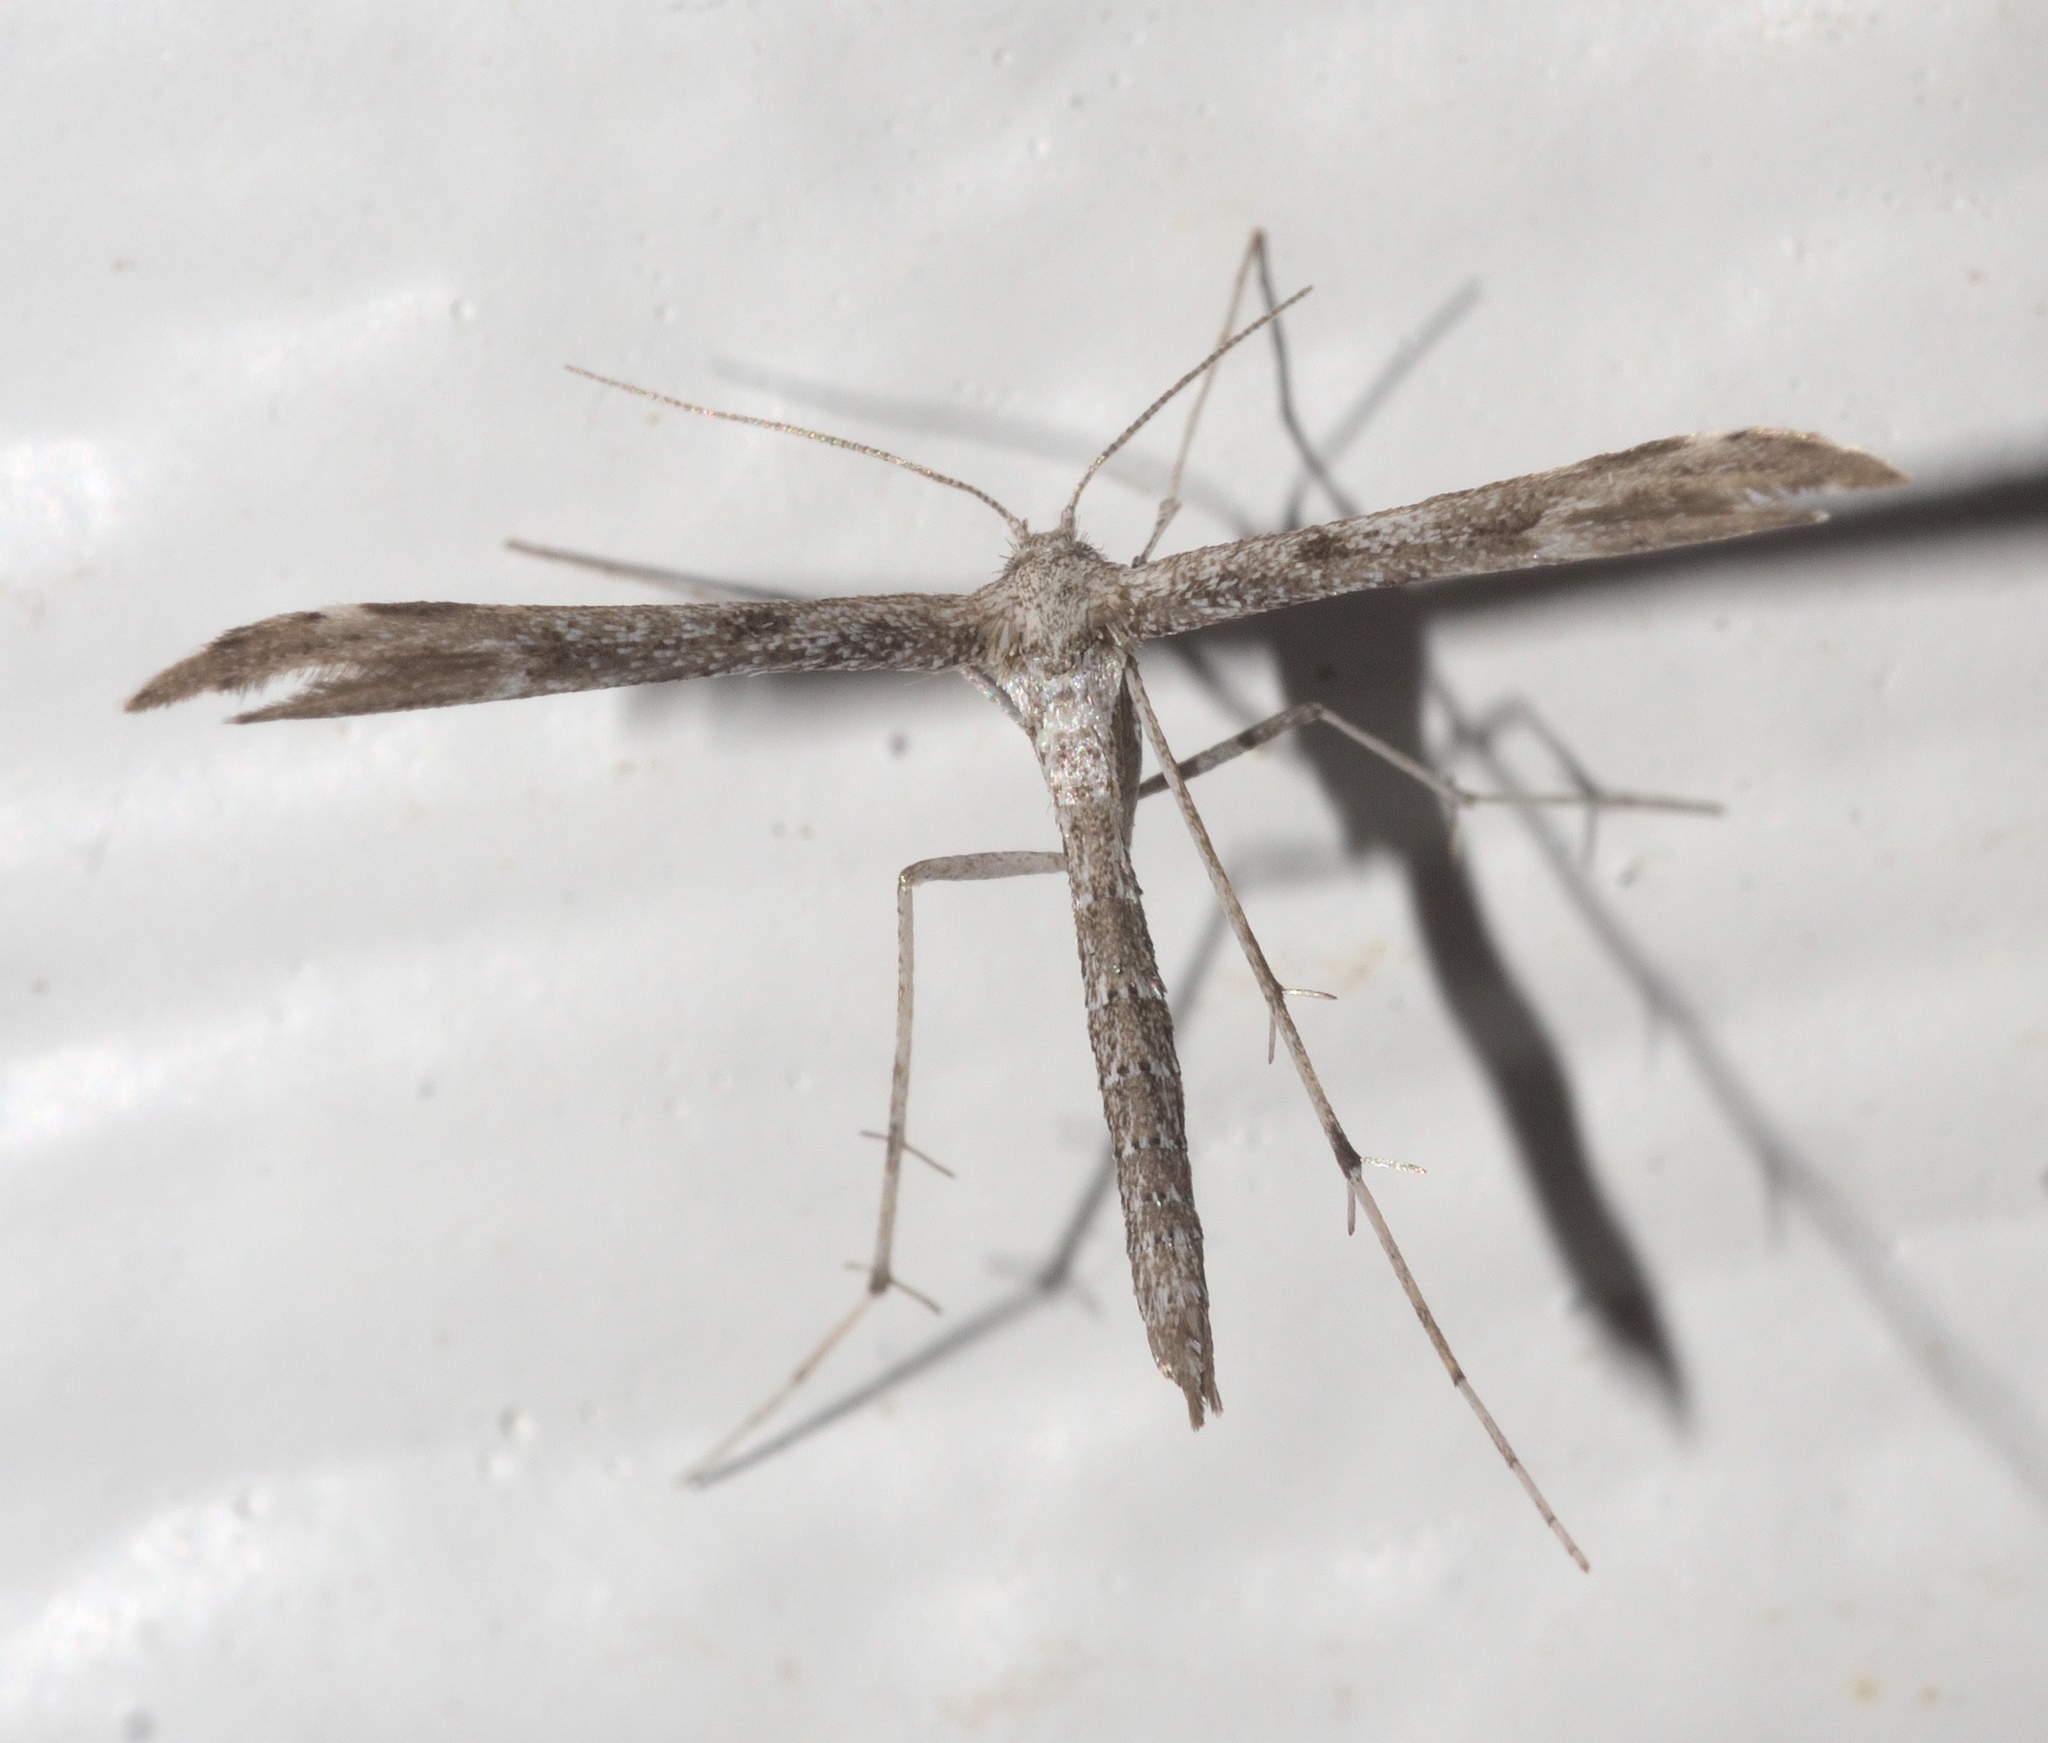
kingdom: Animalia
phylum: Arthropoda
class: Insecta
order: Lepidoptera
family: Pterophoridae
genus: Hellinsia
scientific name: Hellinsia inquinatus
